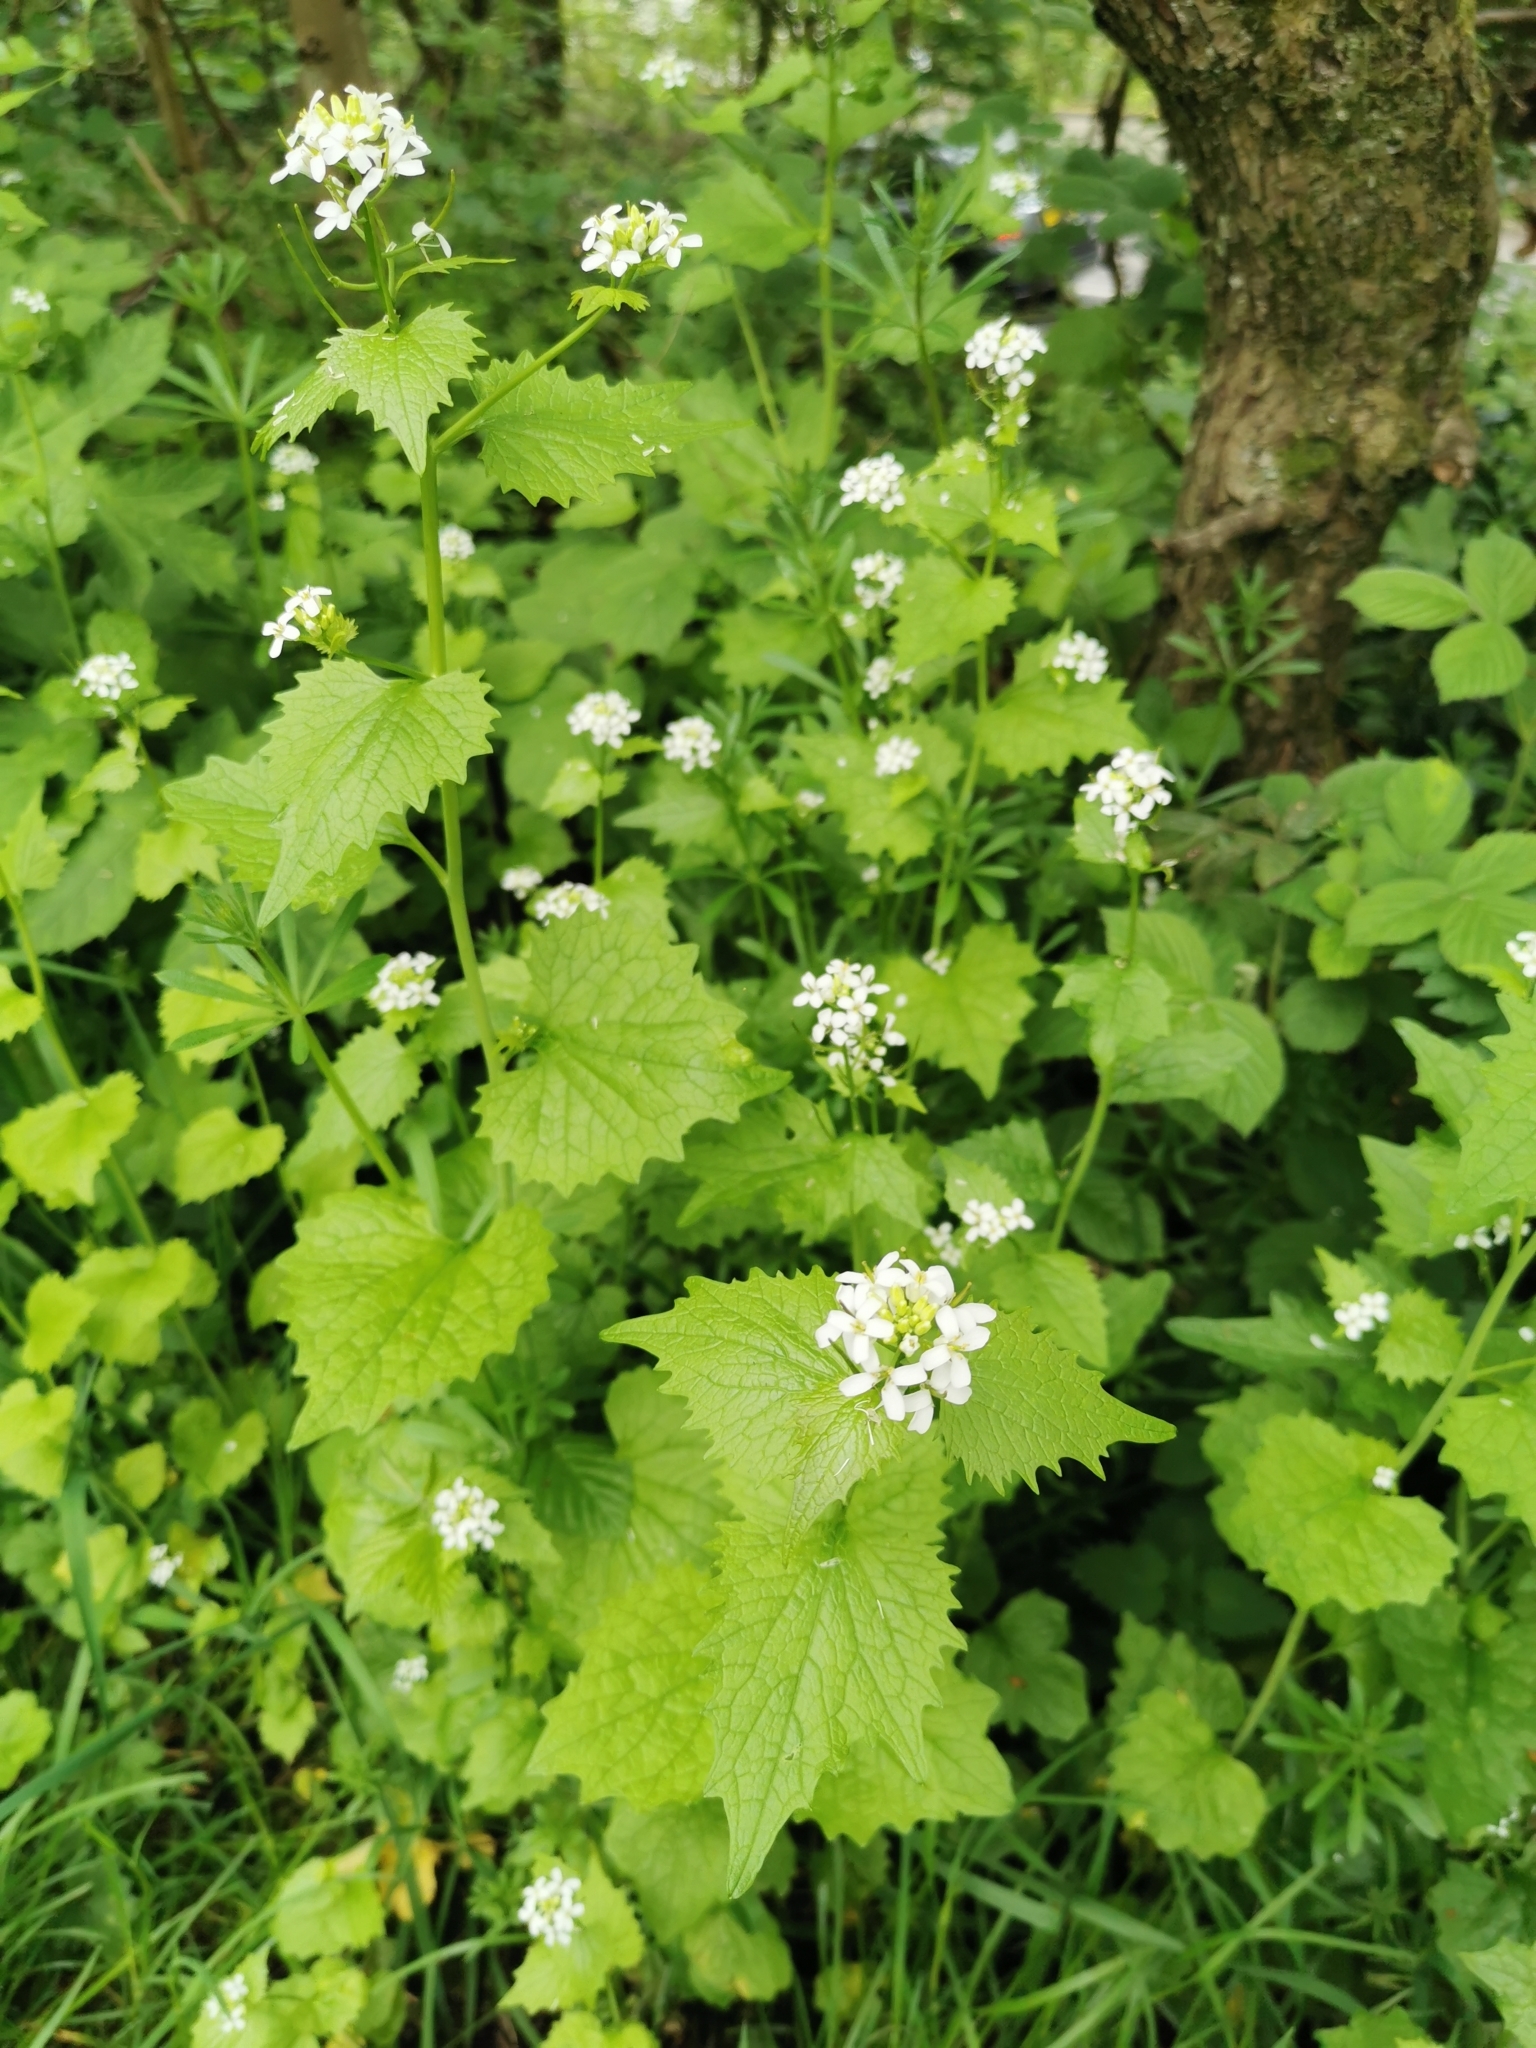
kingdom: Plantae
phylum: Tracheophyta
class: Magnoliopsida
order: Brassicales
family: Brassicaceae
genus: Alliaria
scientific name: Alliaria petiolata
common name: Garlic mustard
